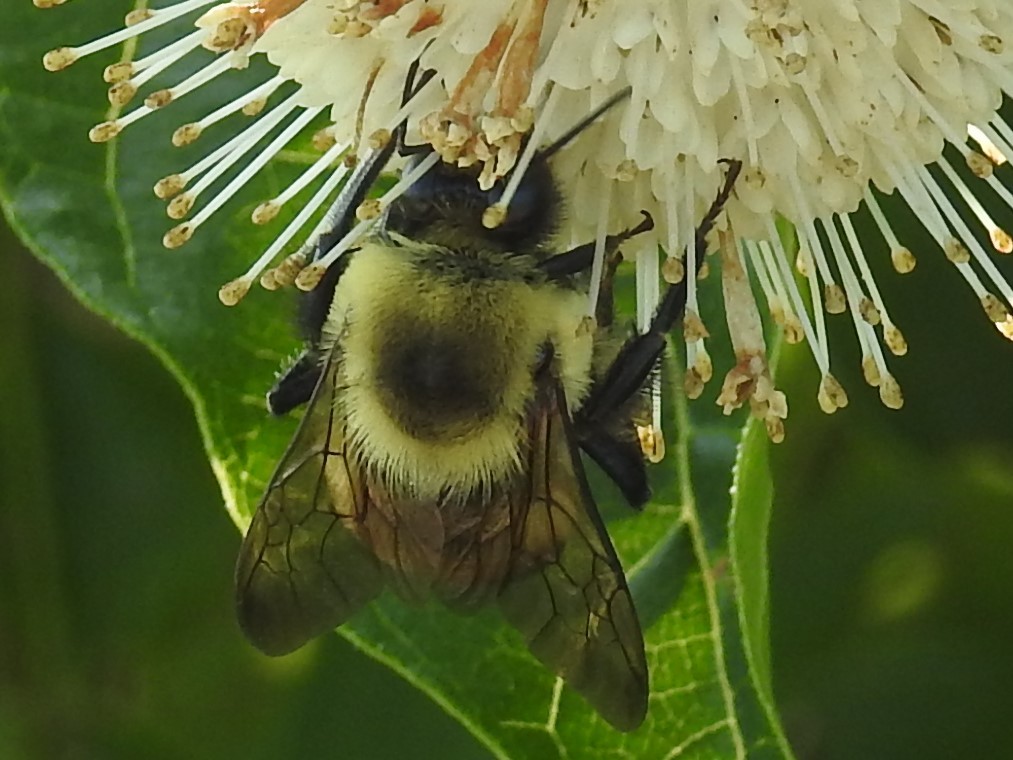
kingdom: Animalia
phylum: Arthropoda
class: Insecta
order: Hymenoptera
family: Apidae
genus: Bombus
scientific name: Bombus griseocollis
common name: Brown-belted bumble bee
